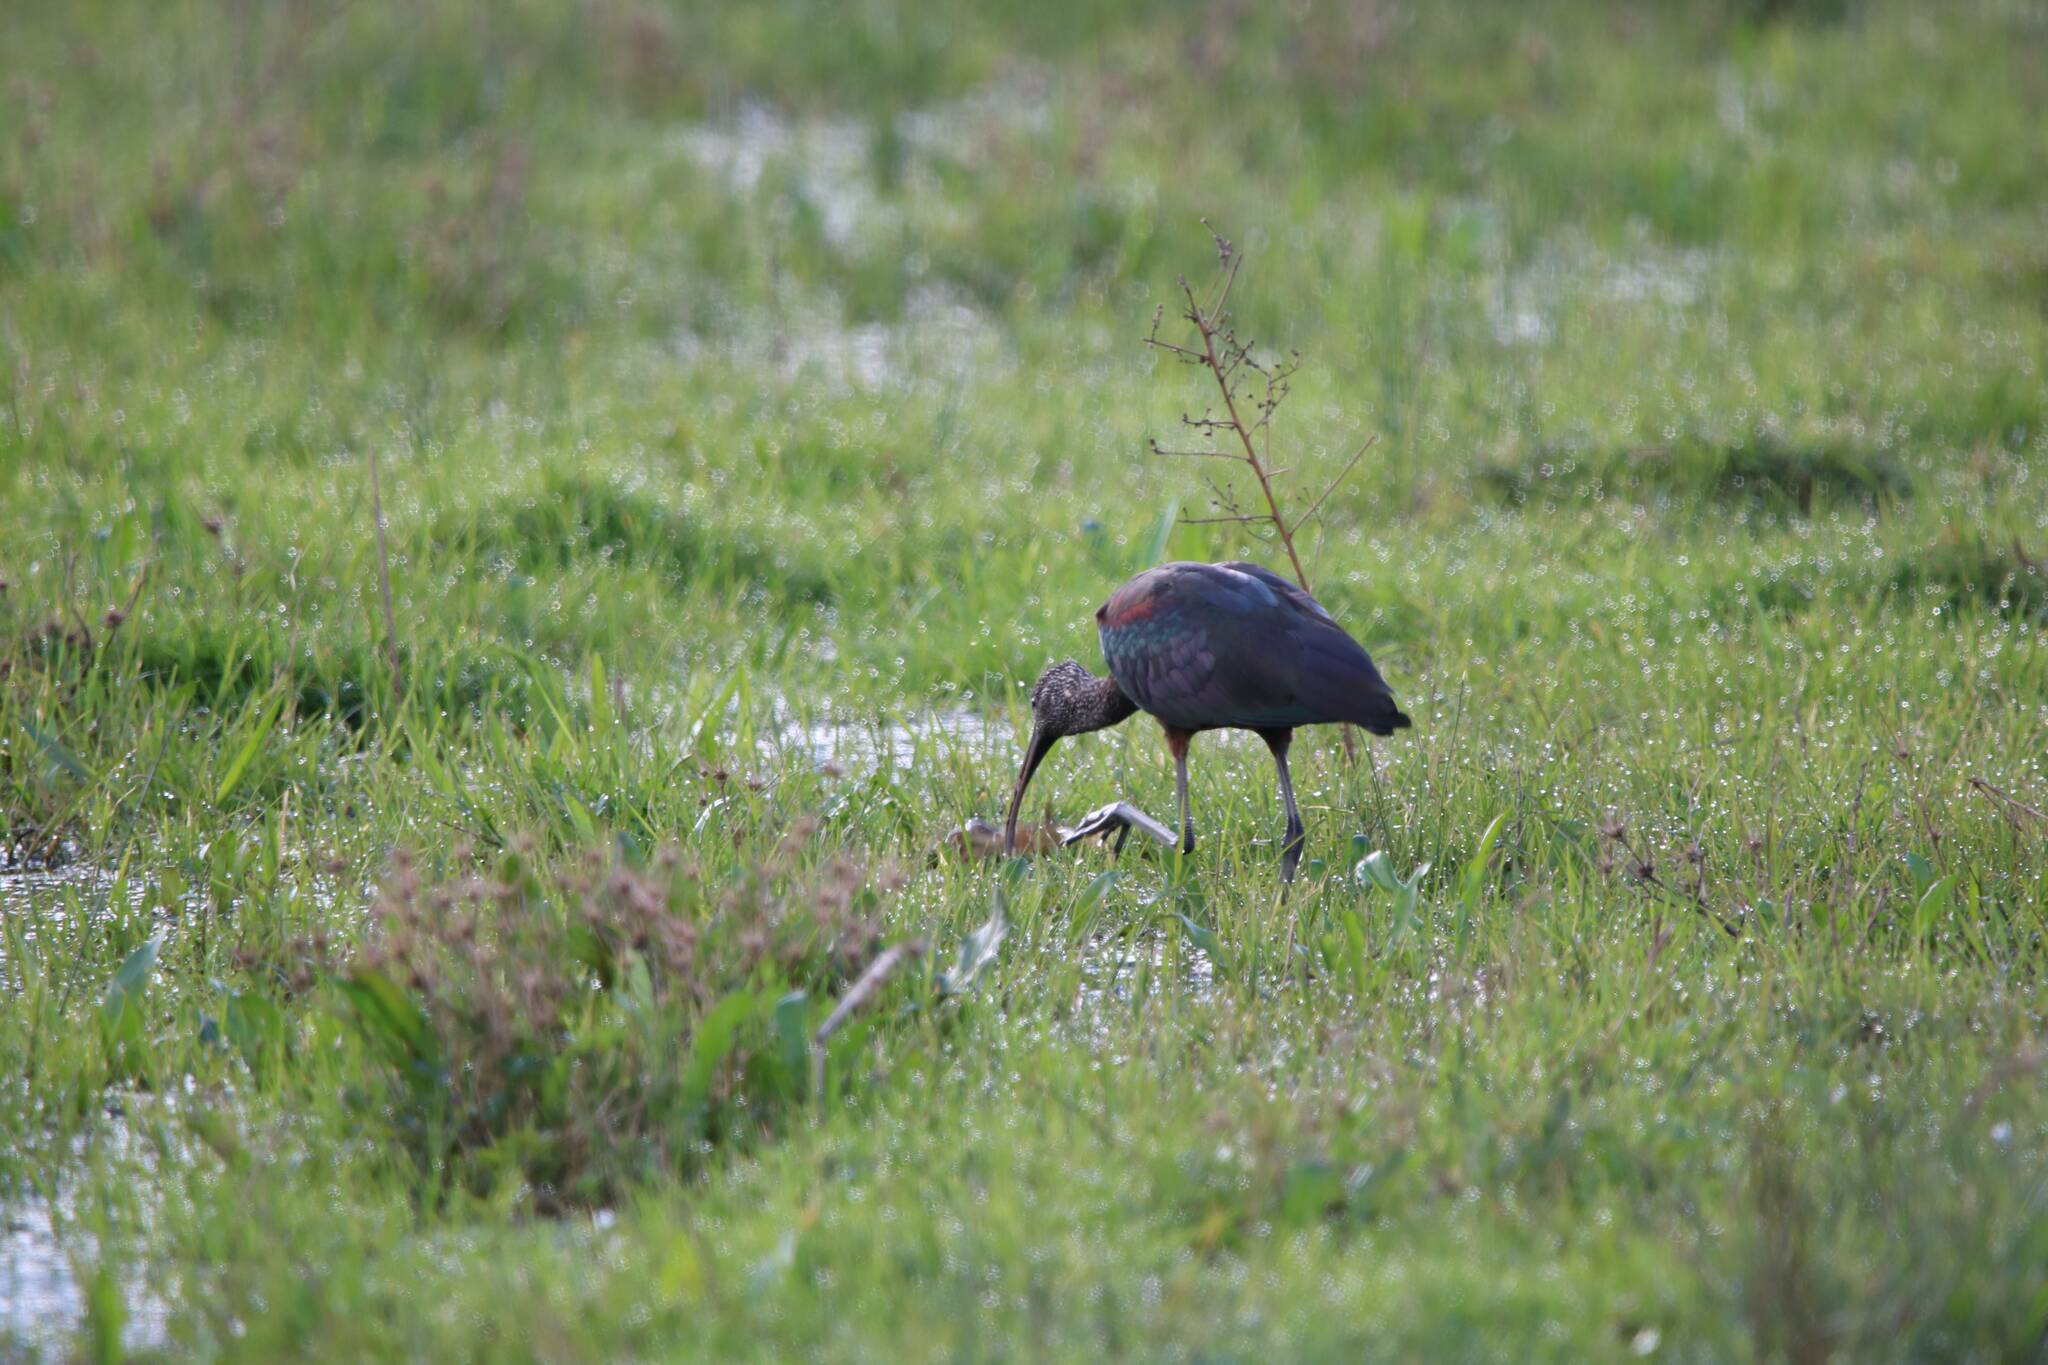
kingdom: Animalia
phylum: Chordata
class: Aves
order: Pelecaniformes
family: Threskiornithidae
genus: Plegadis
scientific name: Plegadis falcinellus
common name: Glossy ibis
